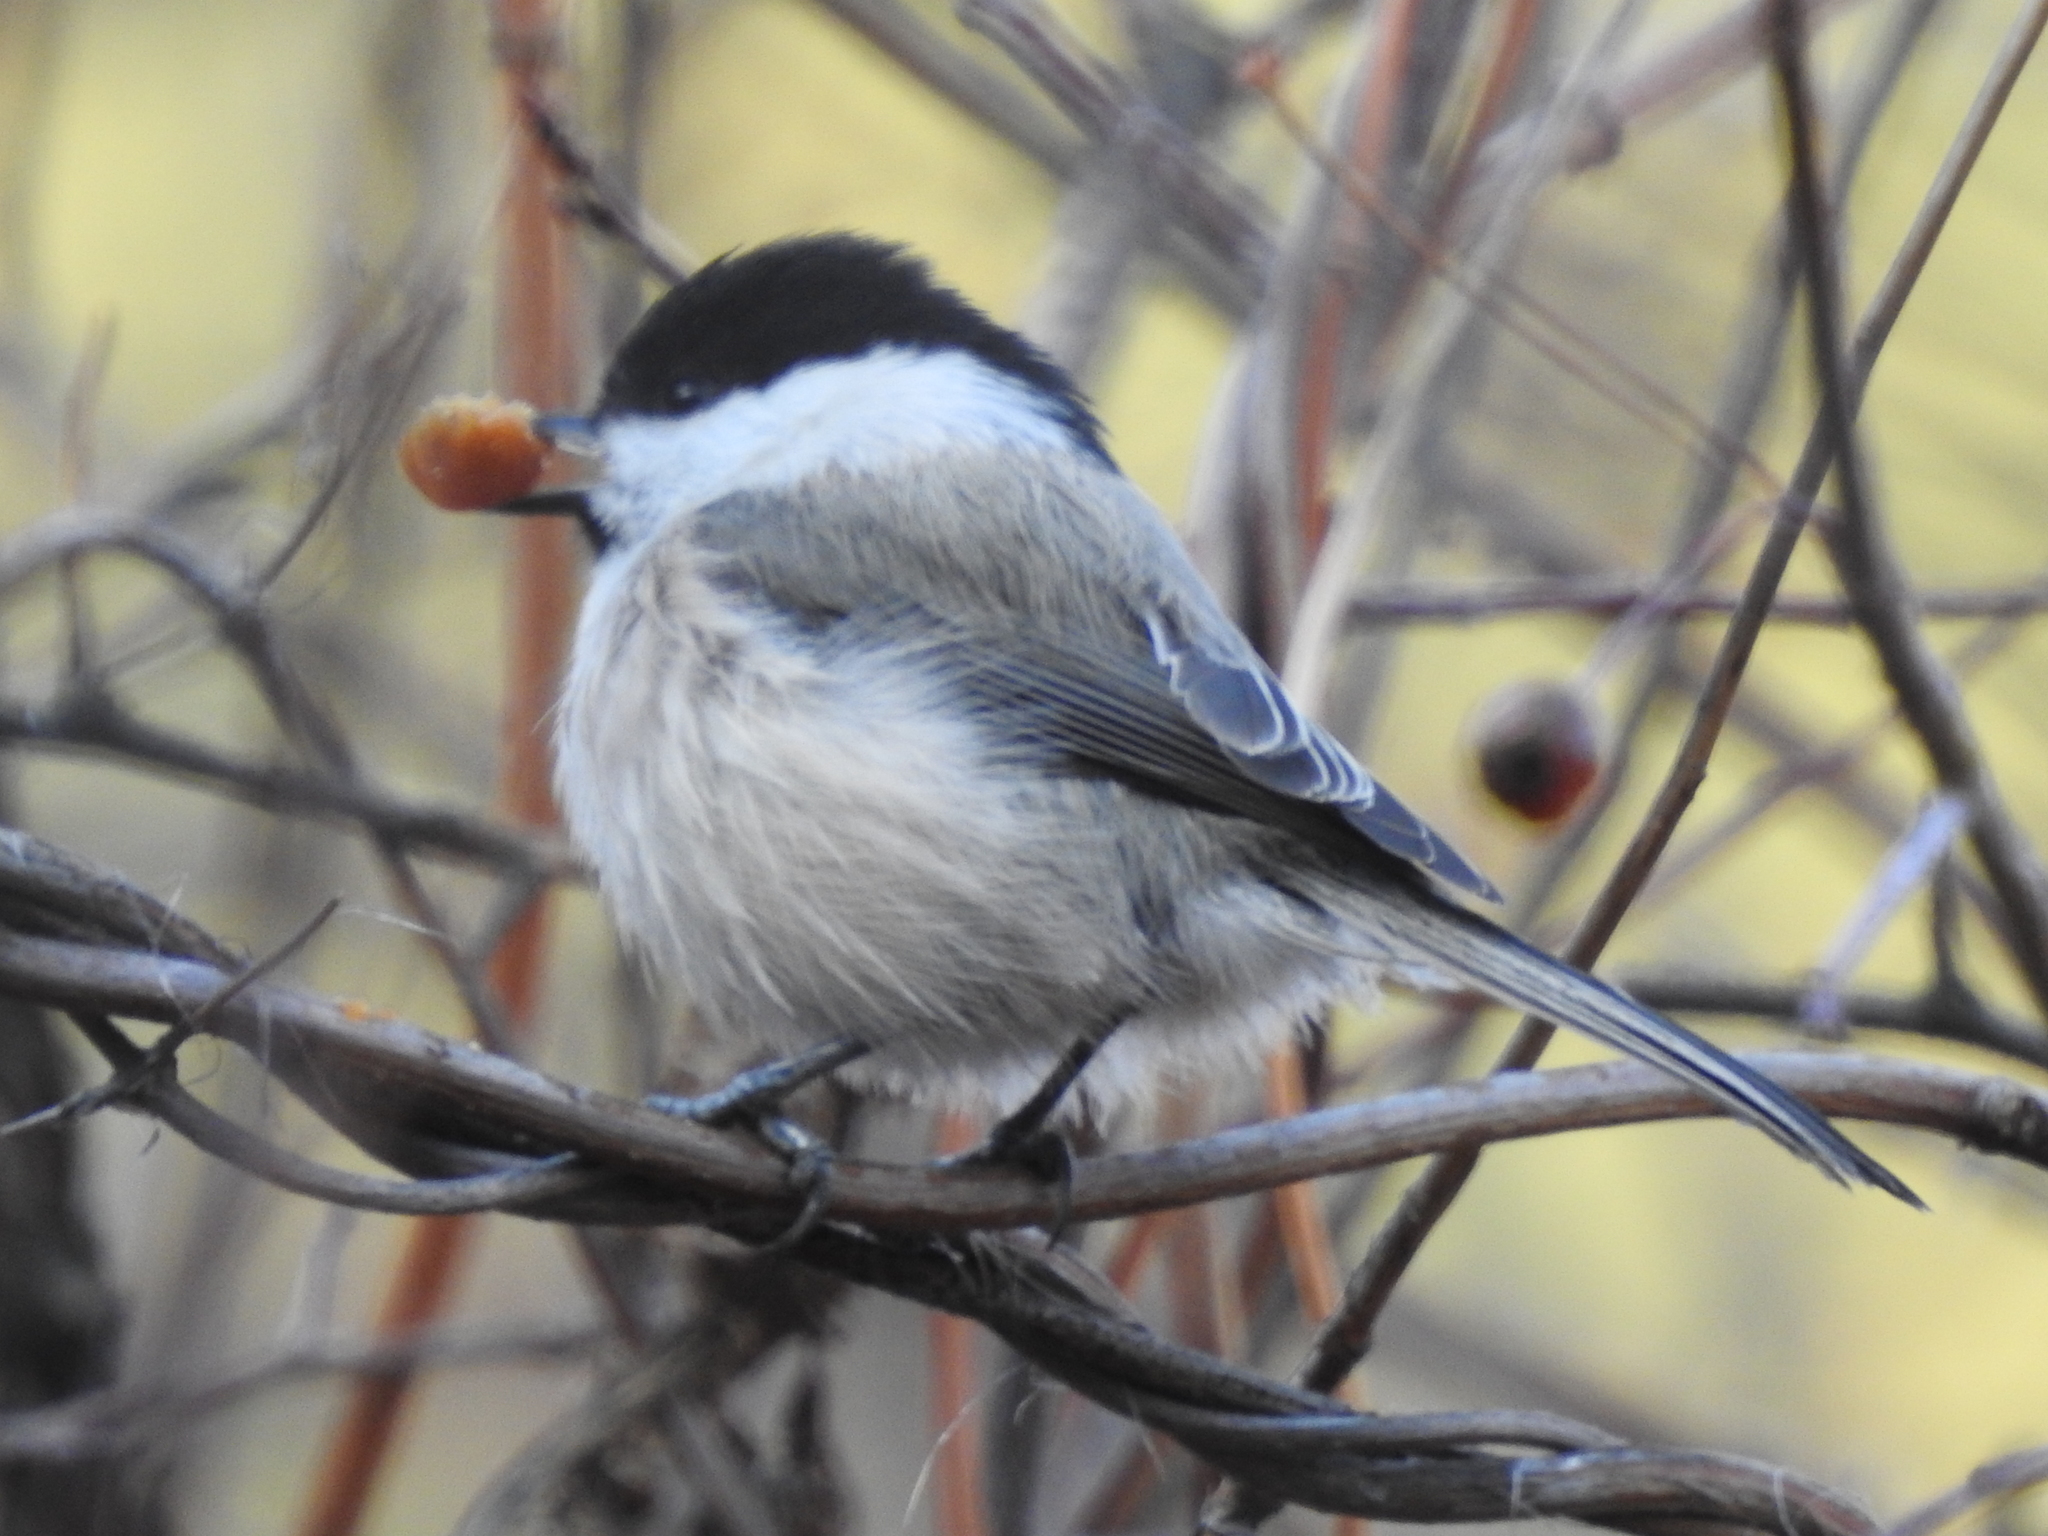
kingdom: Animalia
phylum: Chordata
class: Aves
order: Passeriformes
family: Paridae
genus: Poecile
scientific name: Poecile montanus
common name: Willow tit
